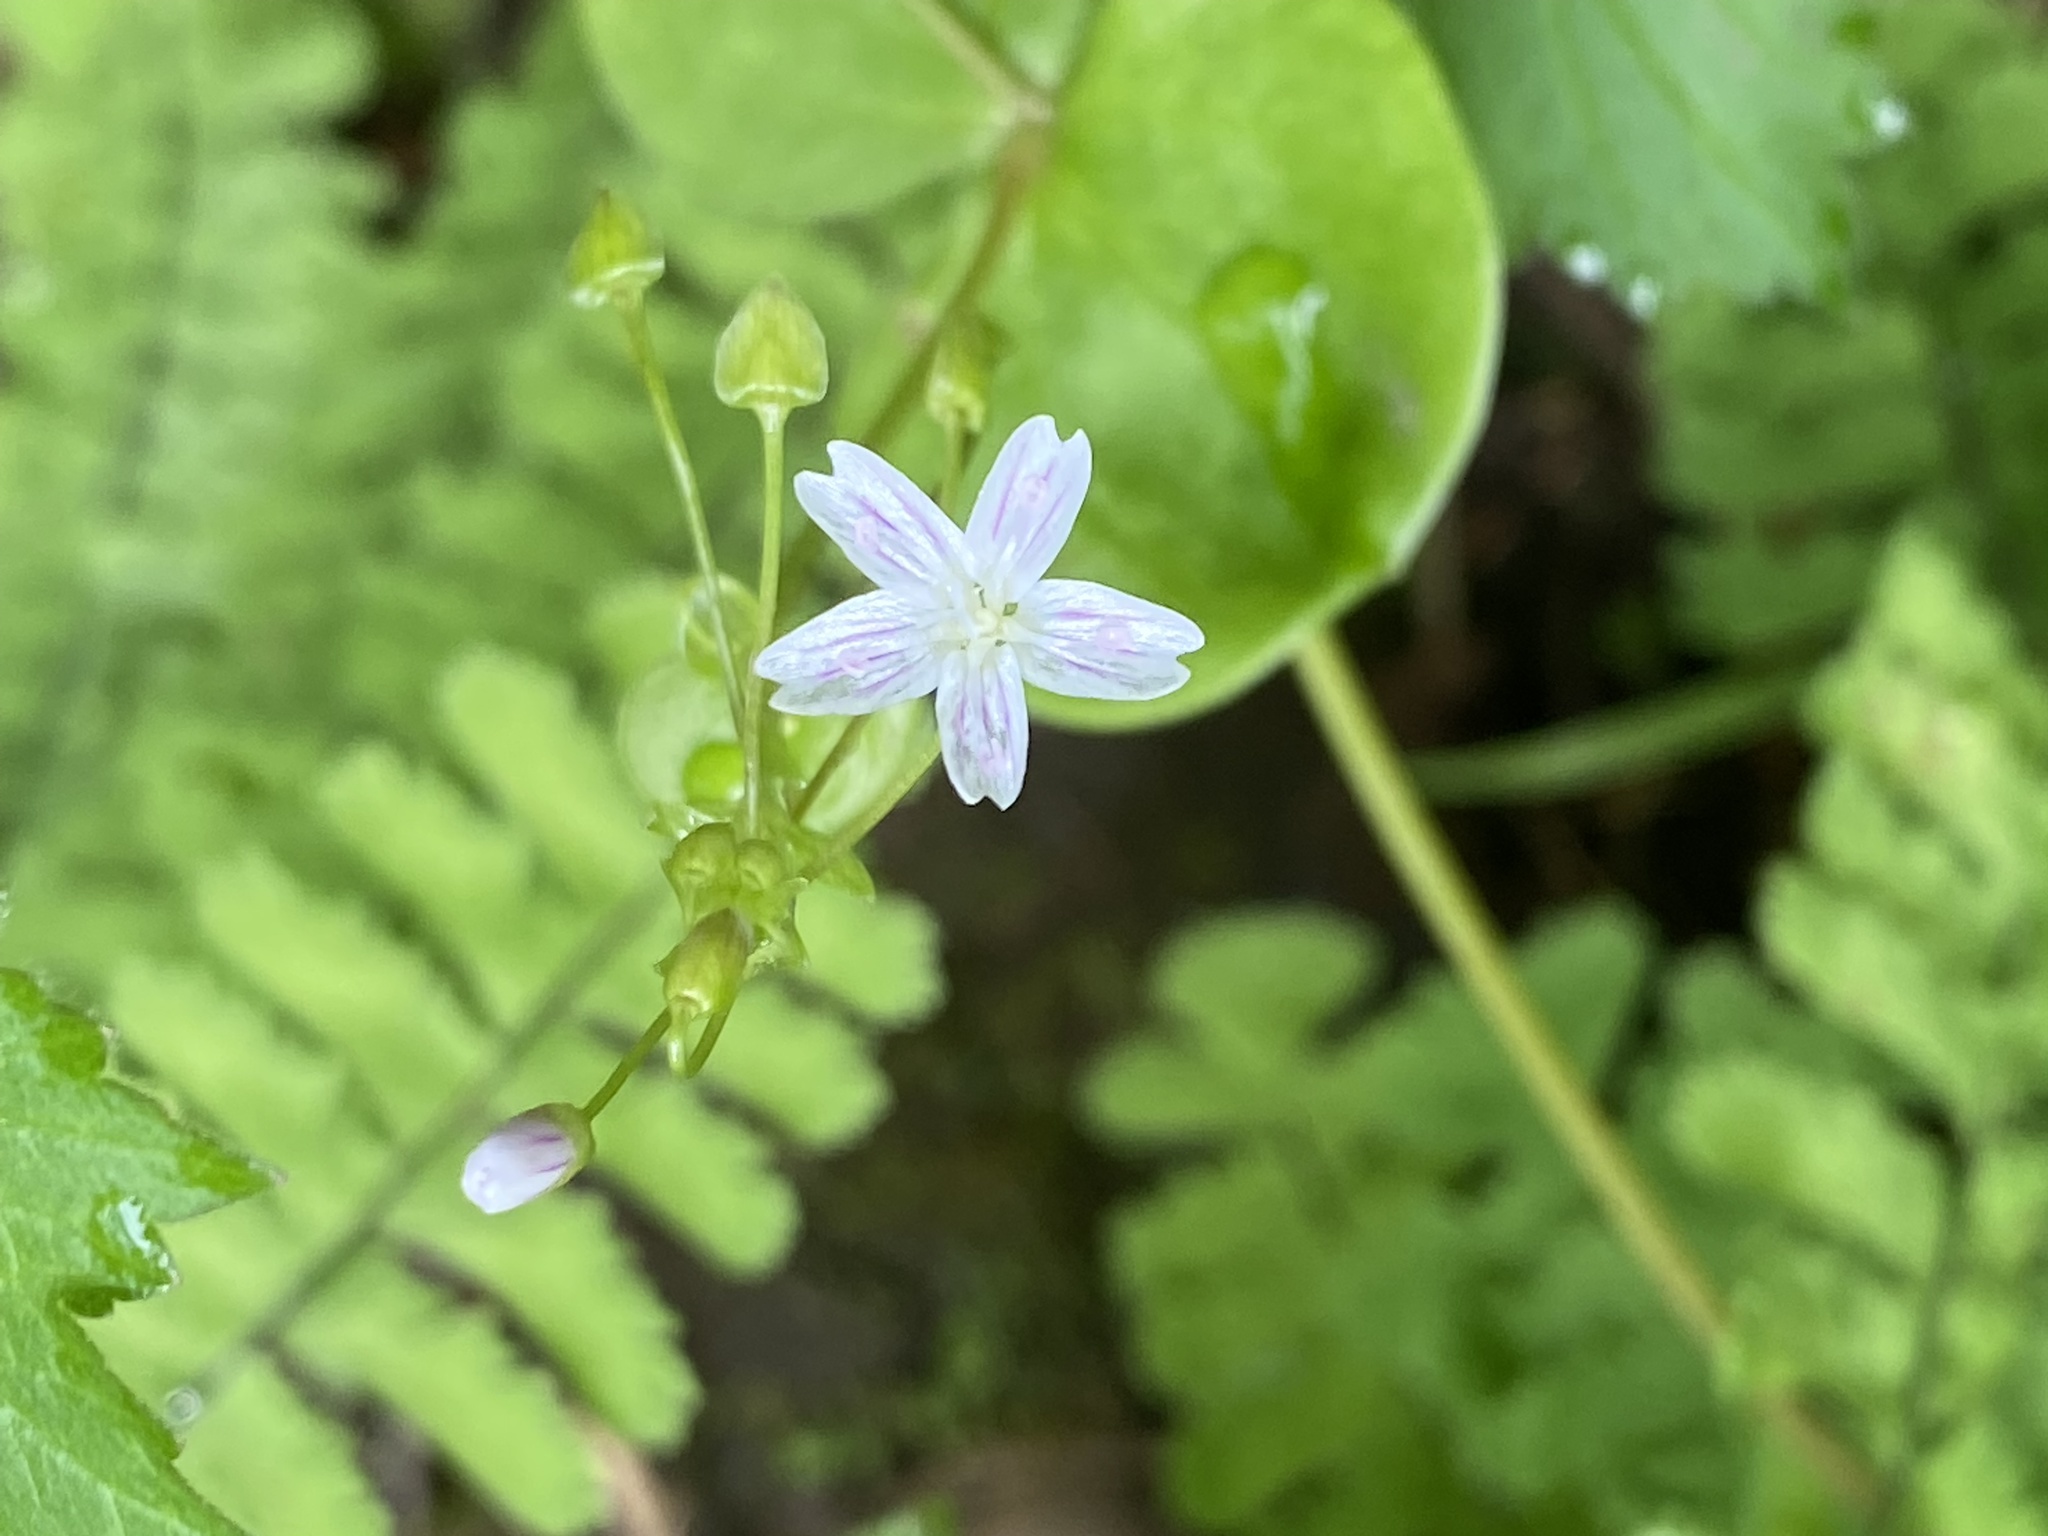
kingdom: Plantae
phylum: Tracheophyta
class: Magnoliopsida
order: Caryophyllales
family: Montiaceae
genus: Claytonia
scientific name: Claytonia sibirica
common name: Pink purslane
